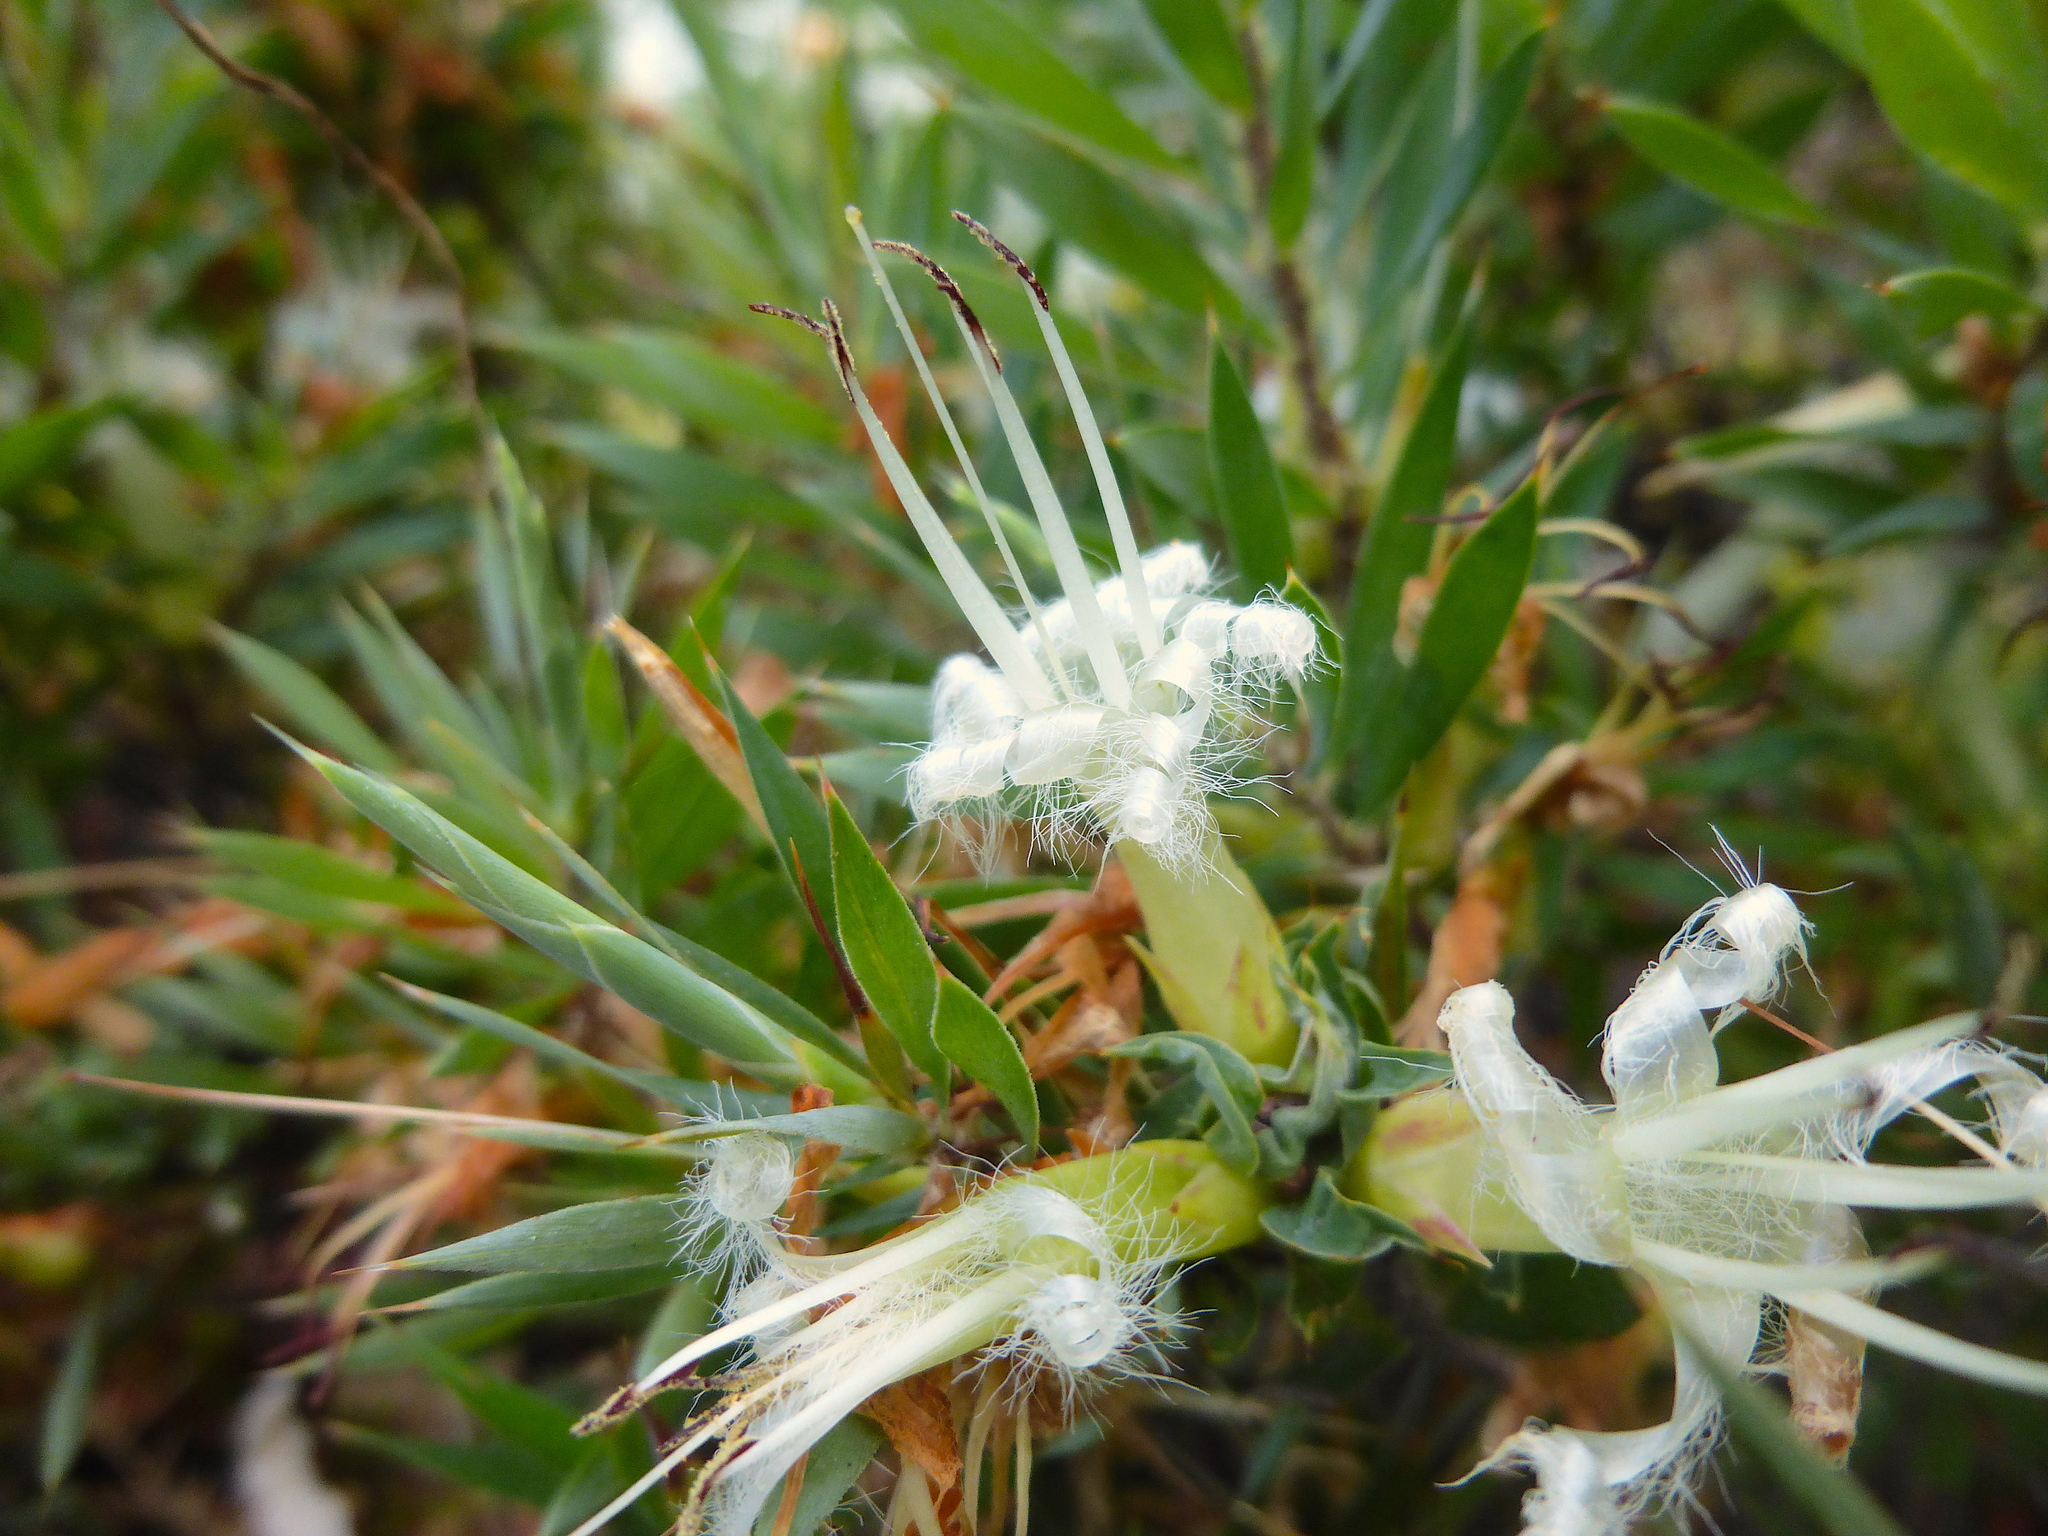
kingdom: Plantae
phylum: Tracheophyta
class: Magnoliopsida
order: Ericales
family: Ericaceae
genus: Styphelia
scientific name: Styphelia adscendens
